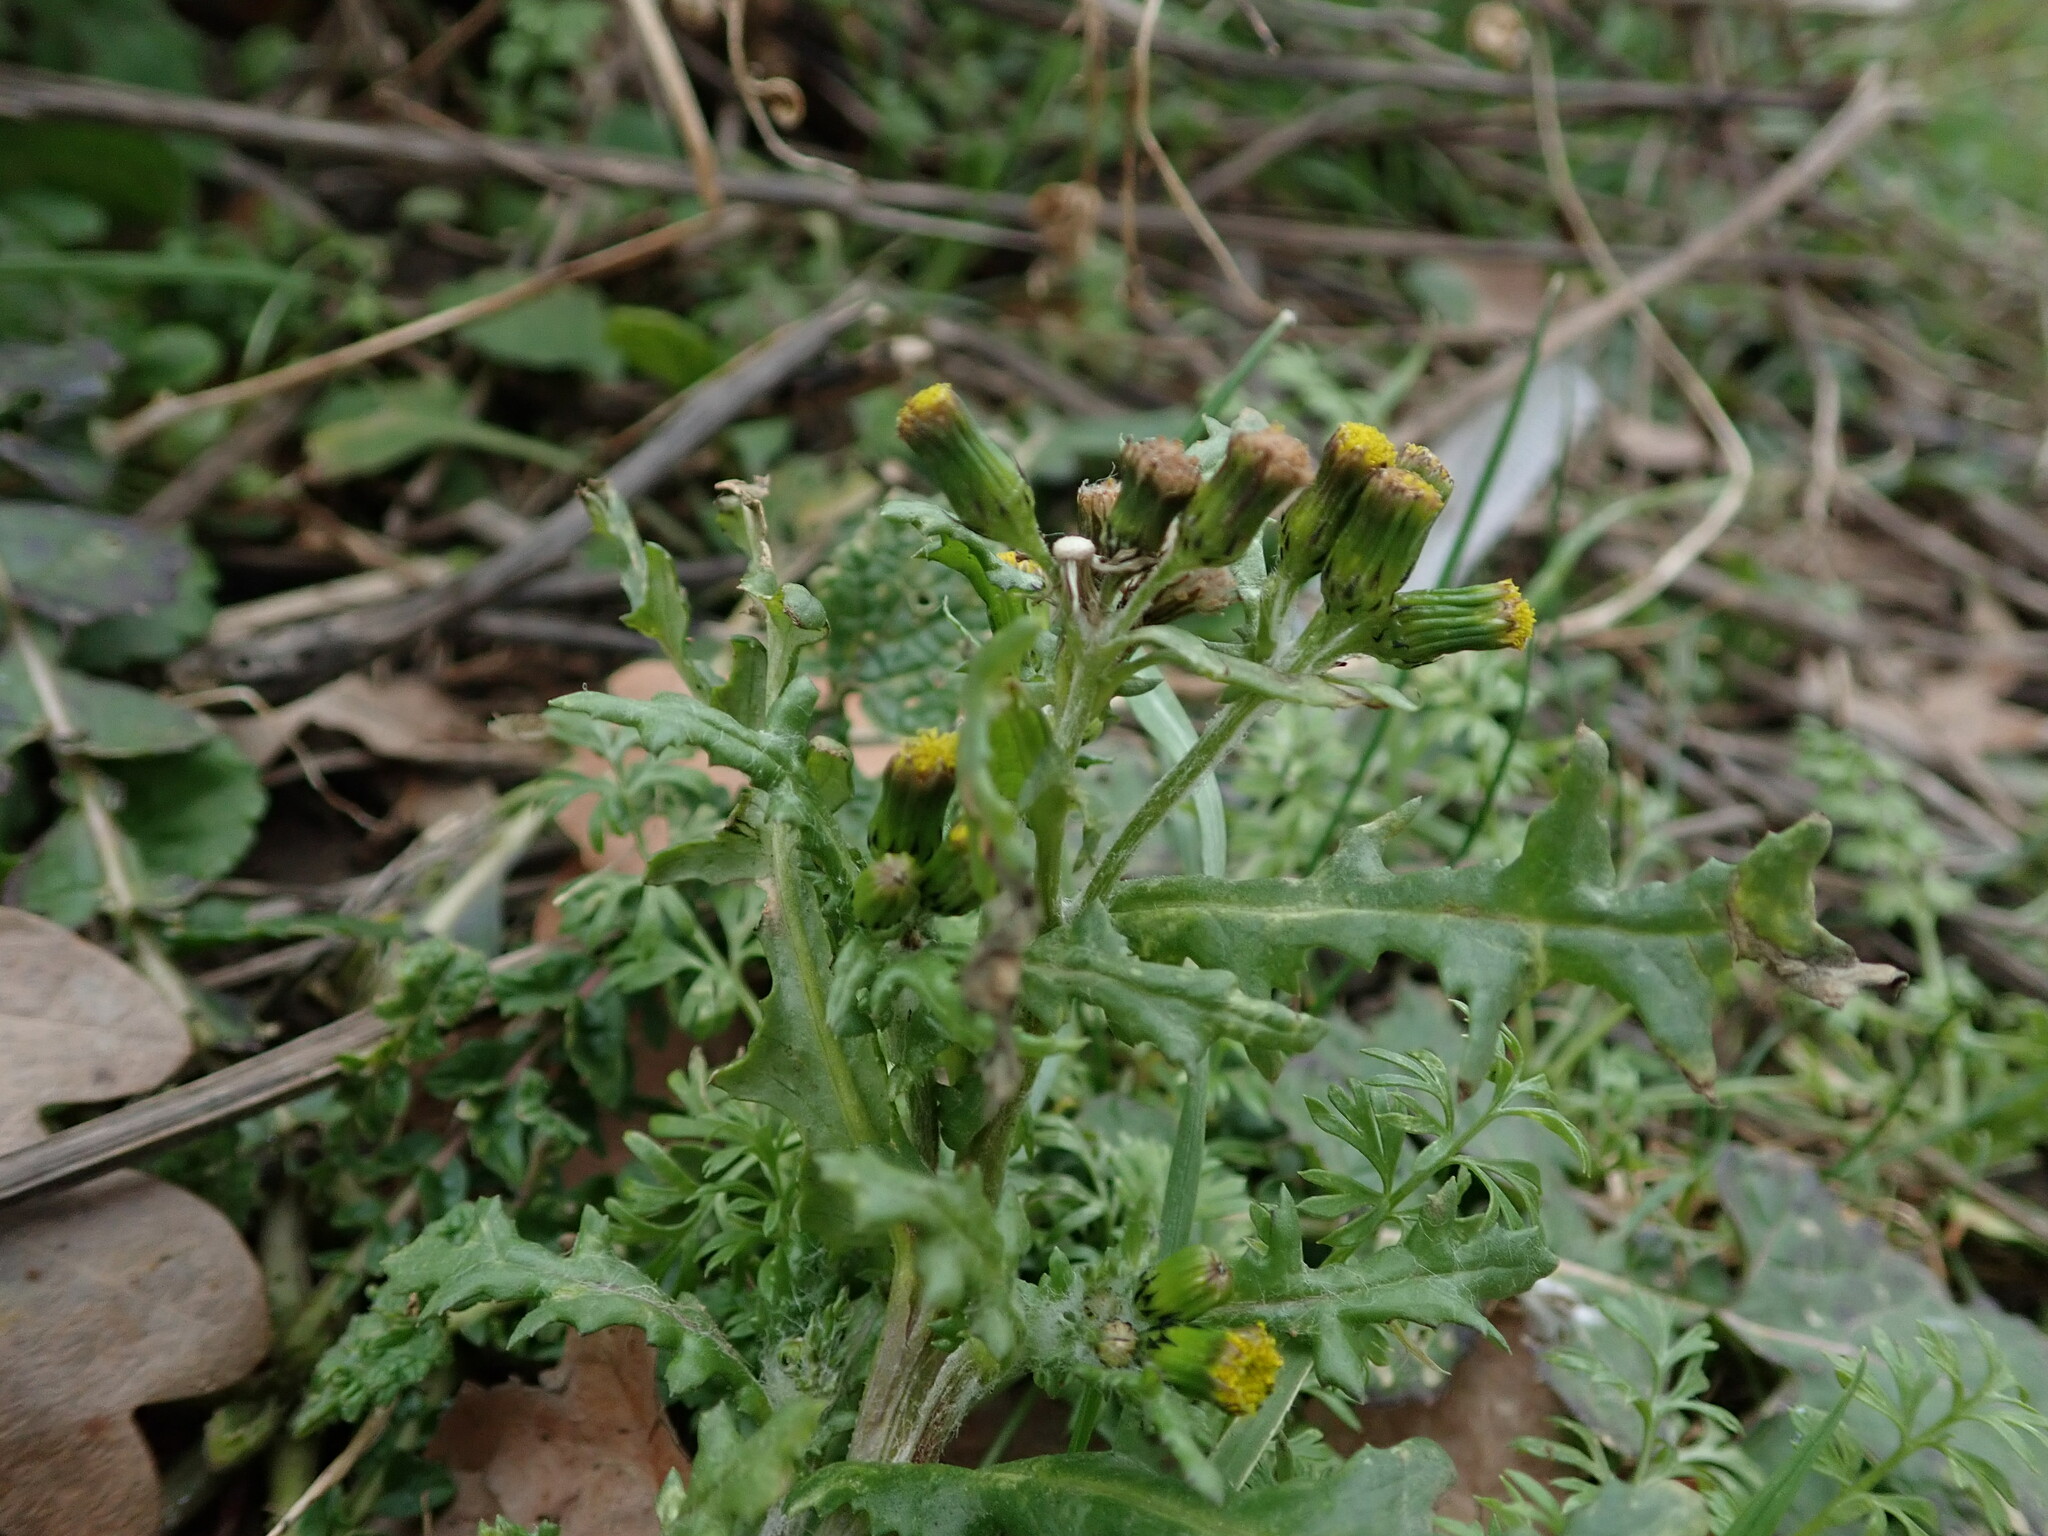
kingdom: Plantae
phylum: Tracheophyta
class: Magnoliopsida
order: Asterales
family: Asteraceae
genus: Senecio
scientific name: Senecio vulgaris
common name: Old-man-in-the-spring
